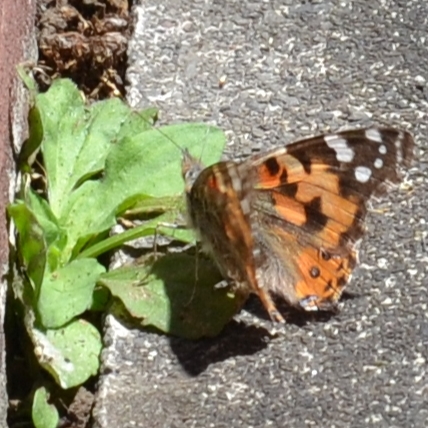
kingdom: Animalia
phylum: Arthropoda
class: Insecta
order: Lepidoptera
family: Nymphalidae
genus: Vanessa
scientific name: Vanessa cardui
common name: Painted lady
